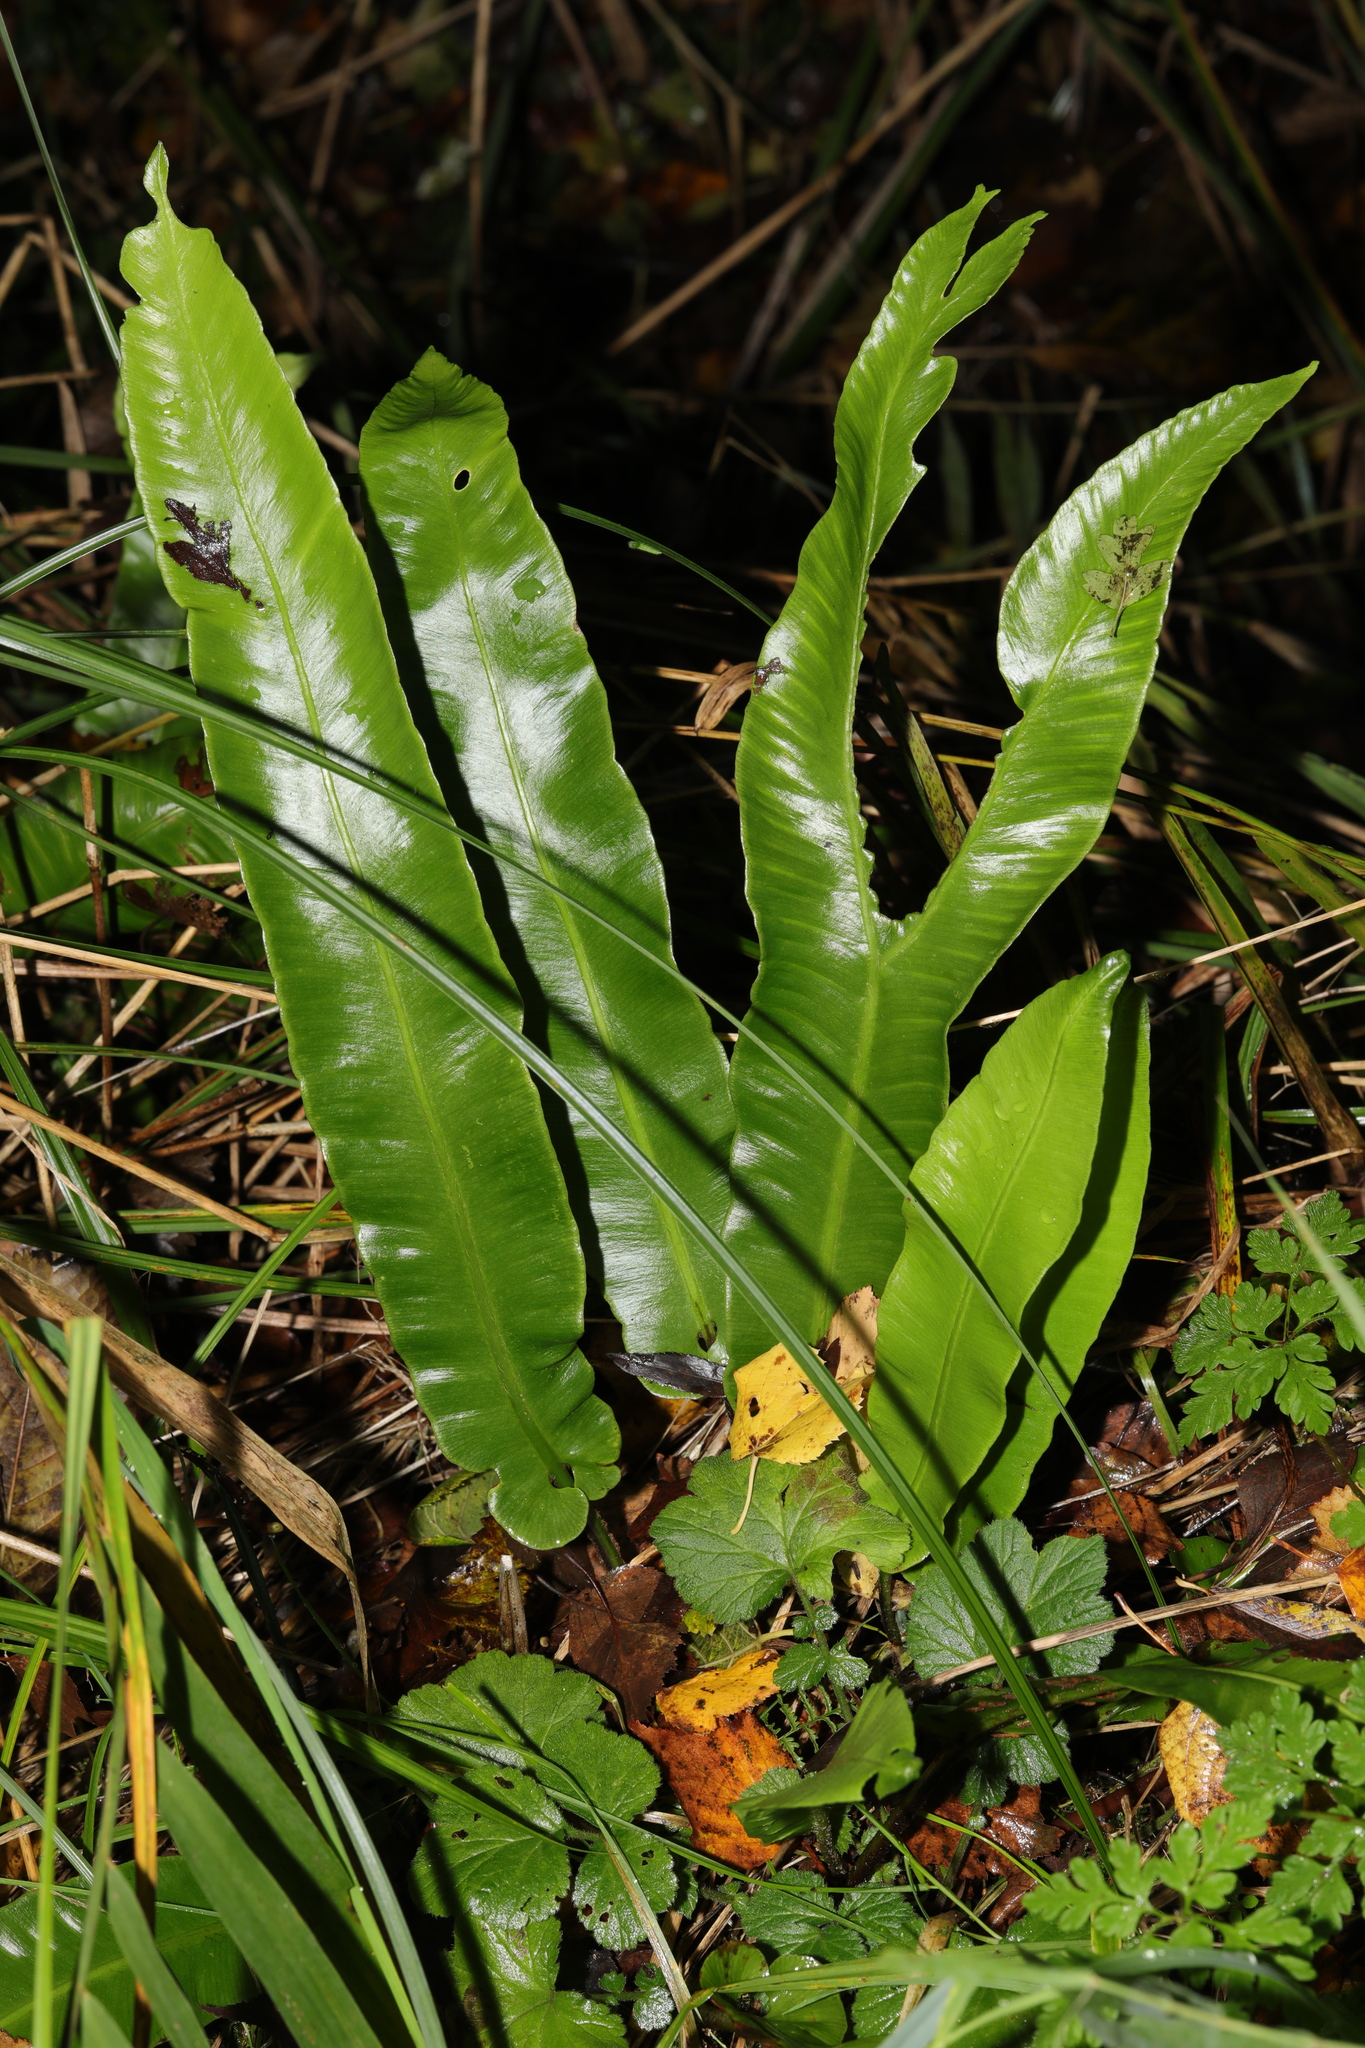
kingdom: Plantae
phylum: Tracheophyta
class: Polypodiopsida
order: Polypodiales
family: Aspleniaceae
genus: Asplenium
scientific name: Asplenium scolopendrium
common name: Hart's-tongue fern
